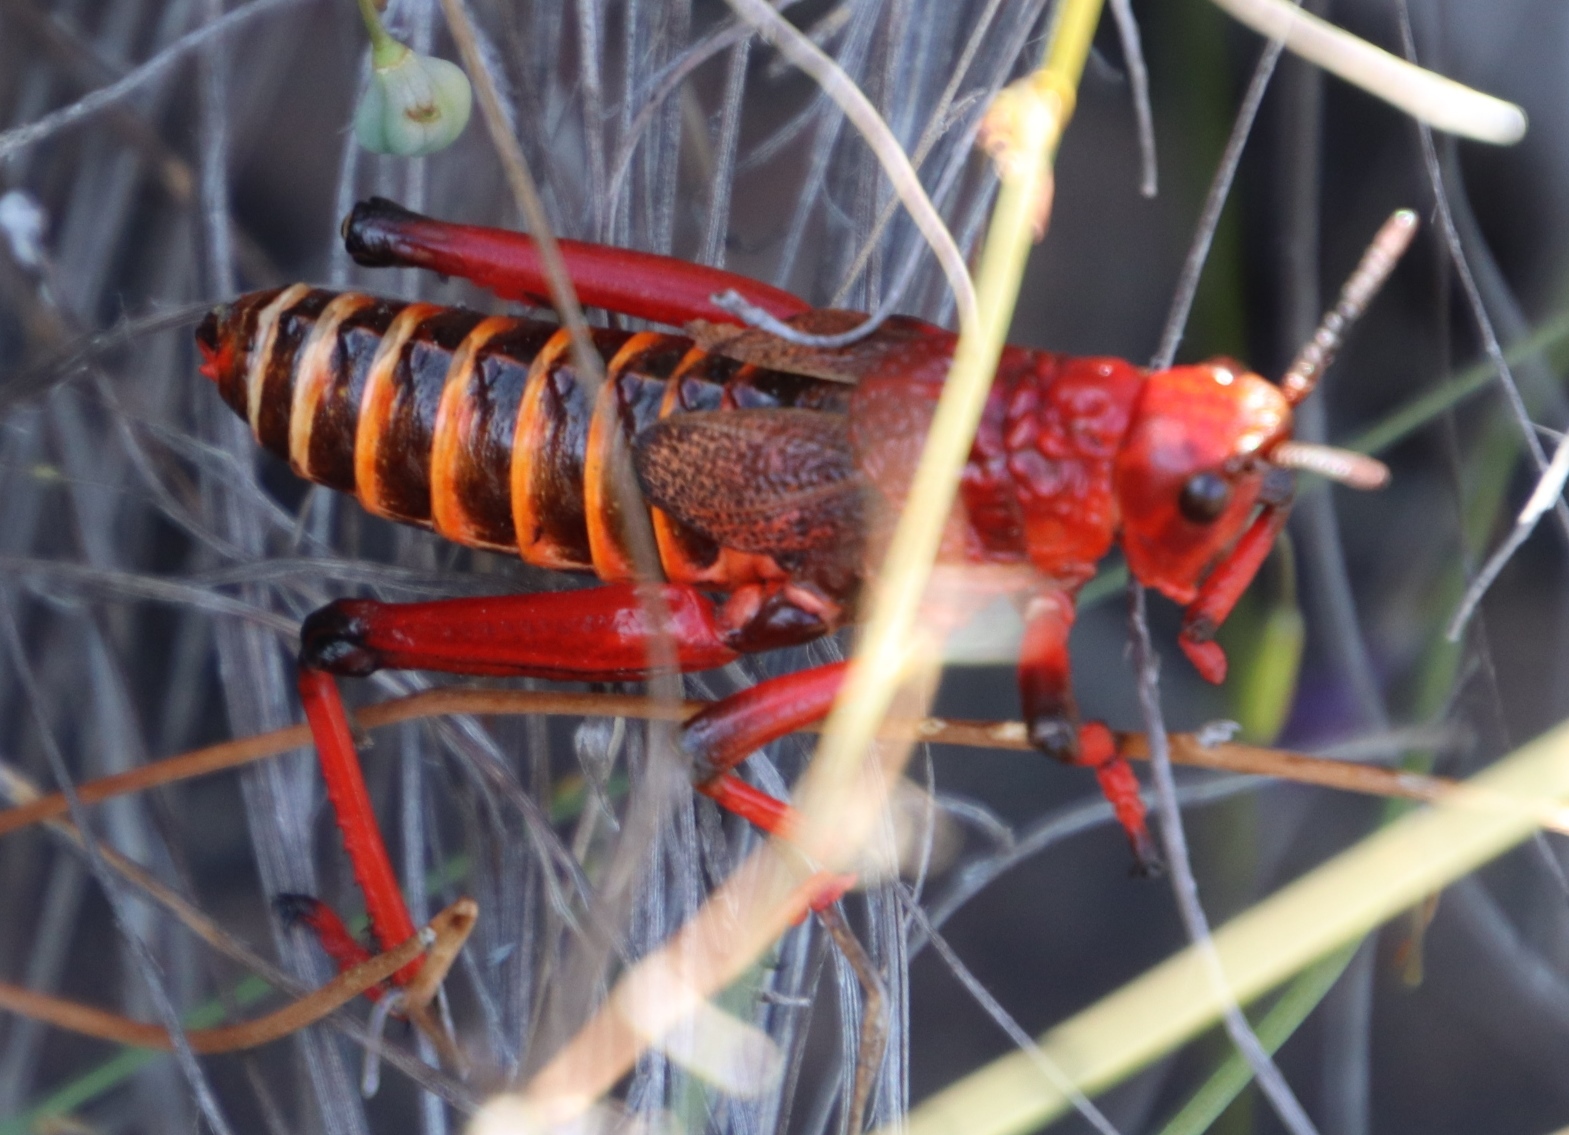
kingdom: Animalia
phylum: Arthropoda
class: Insecta
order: Orthoptera
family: Pyrgomorphidae
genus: Phymateus
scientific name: Phymateus morbillosus
